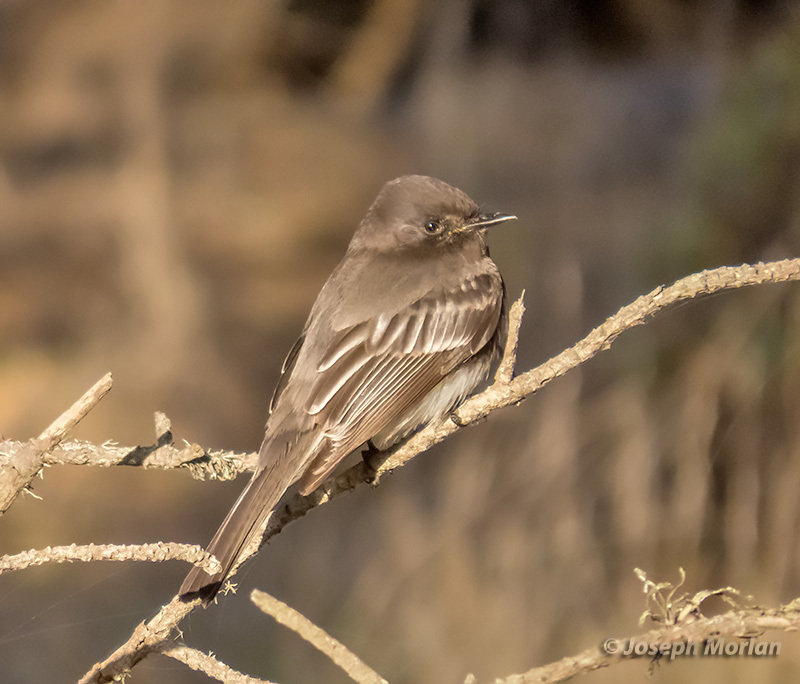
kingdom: Animalia
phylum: Chordata
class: Aves
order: Passeriformes
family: Tyrannidae
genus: Sayornis
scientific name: Sayornis nigricans
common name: Black phoebe
